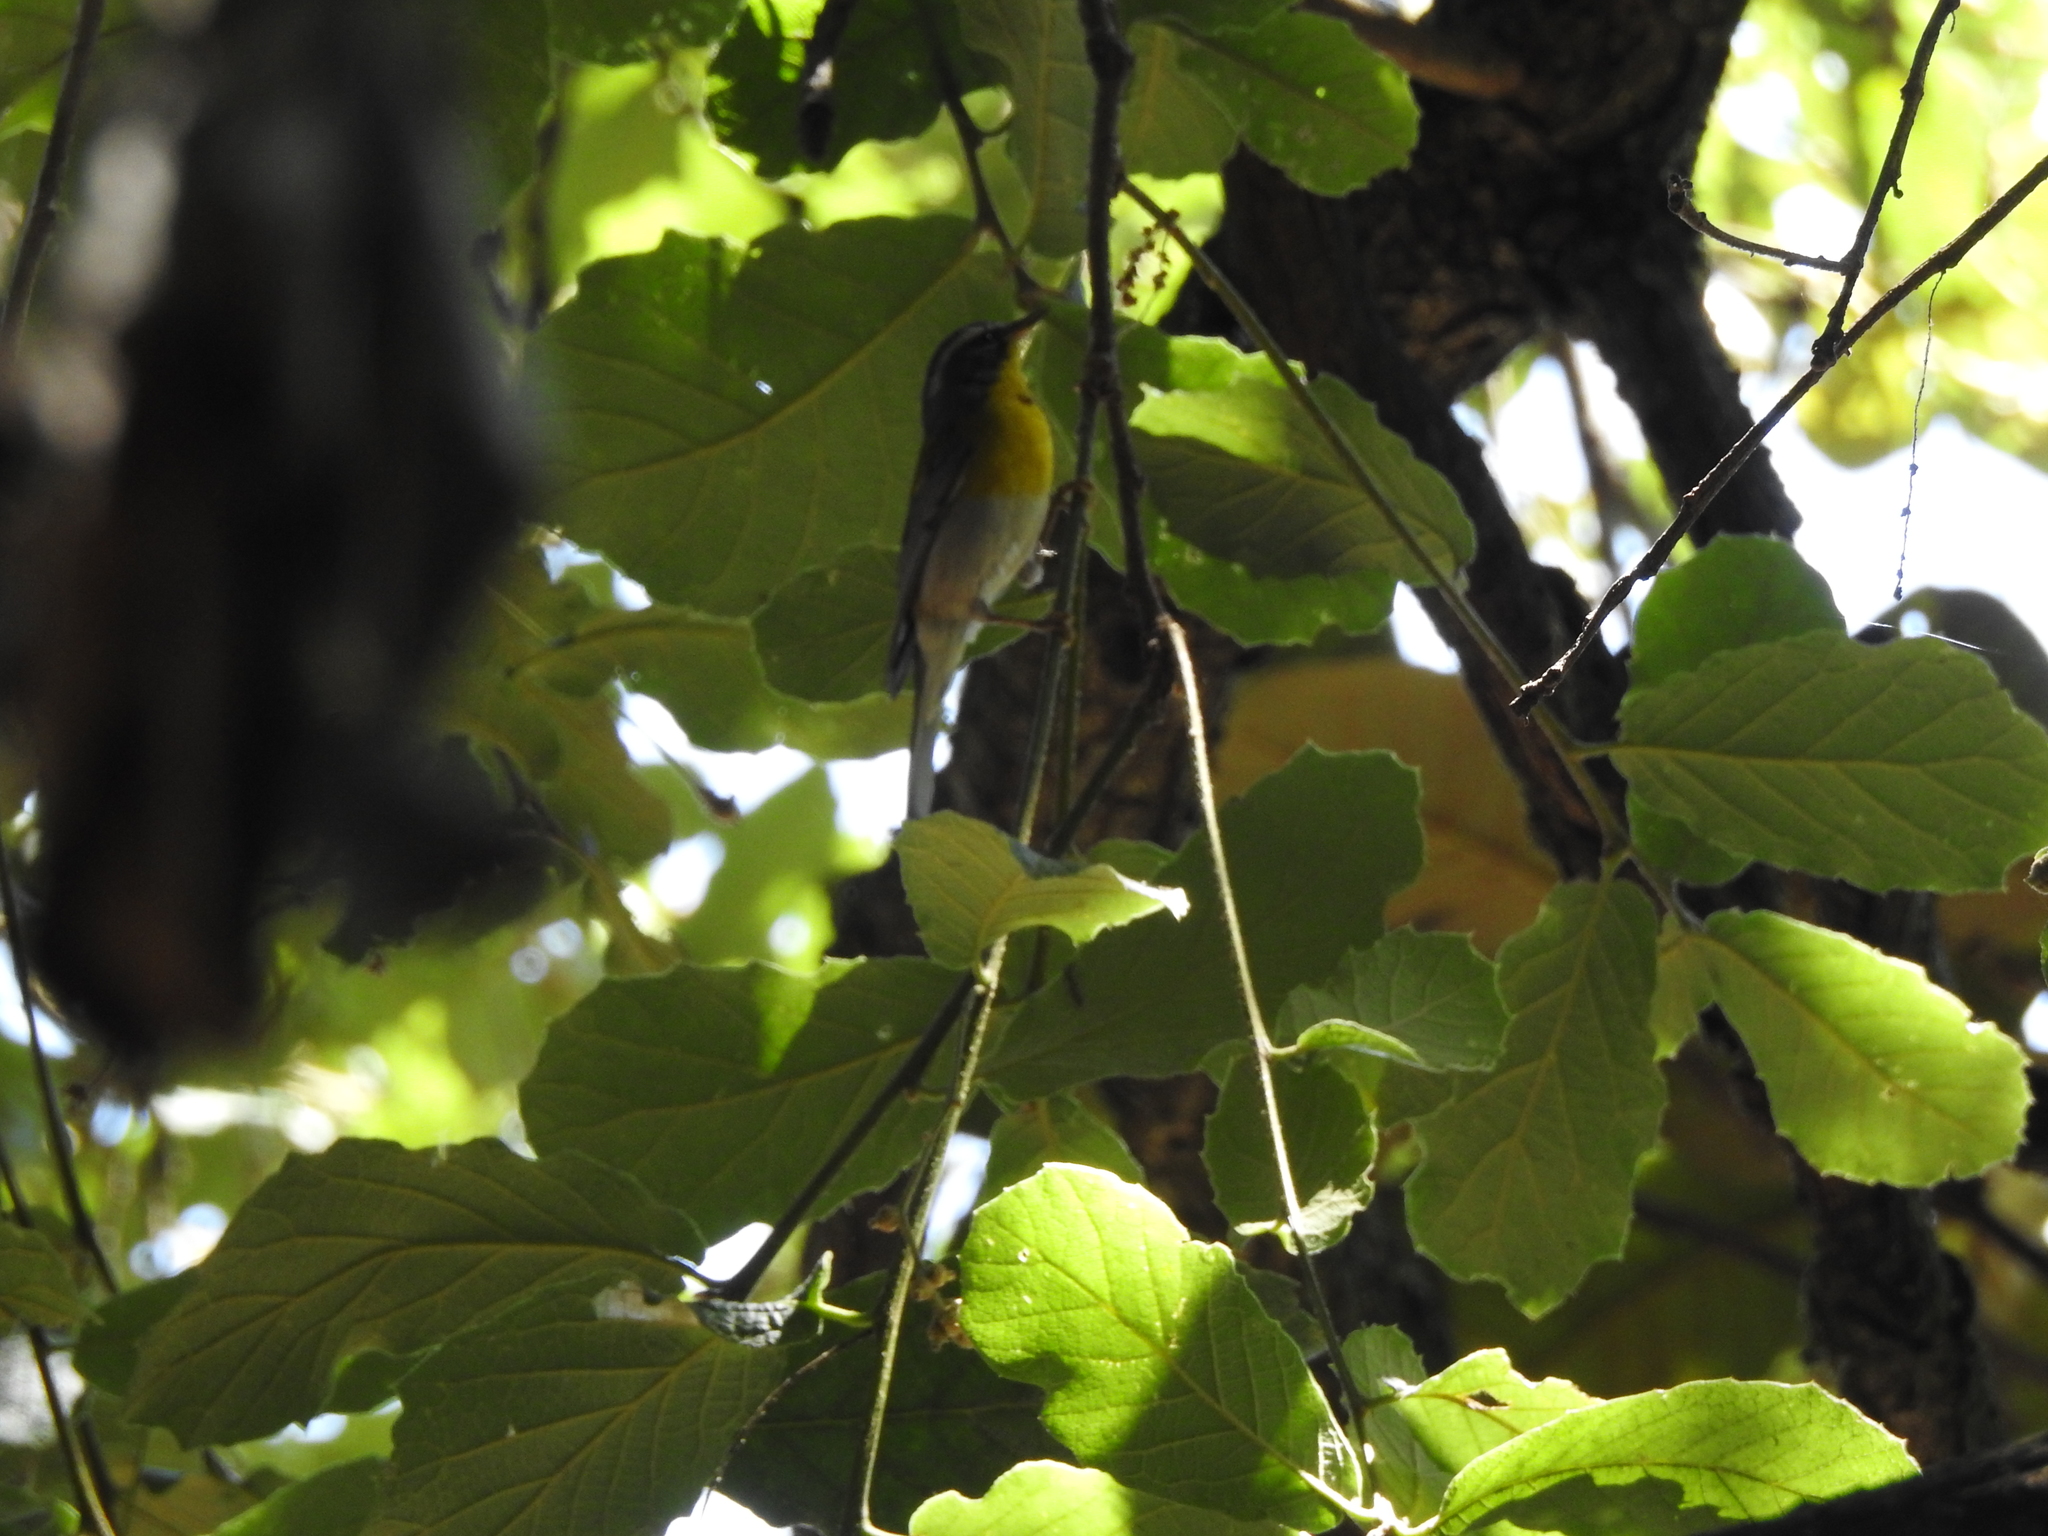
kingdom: Animalia
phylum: Chordata
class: Aves
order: Passeriformes
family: Parulidae
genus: Oreothlypis
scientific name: Oreothlypis superciliosa
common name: Crescent-chested warbler
